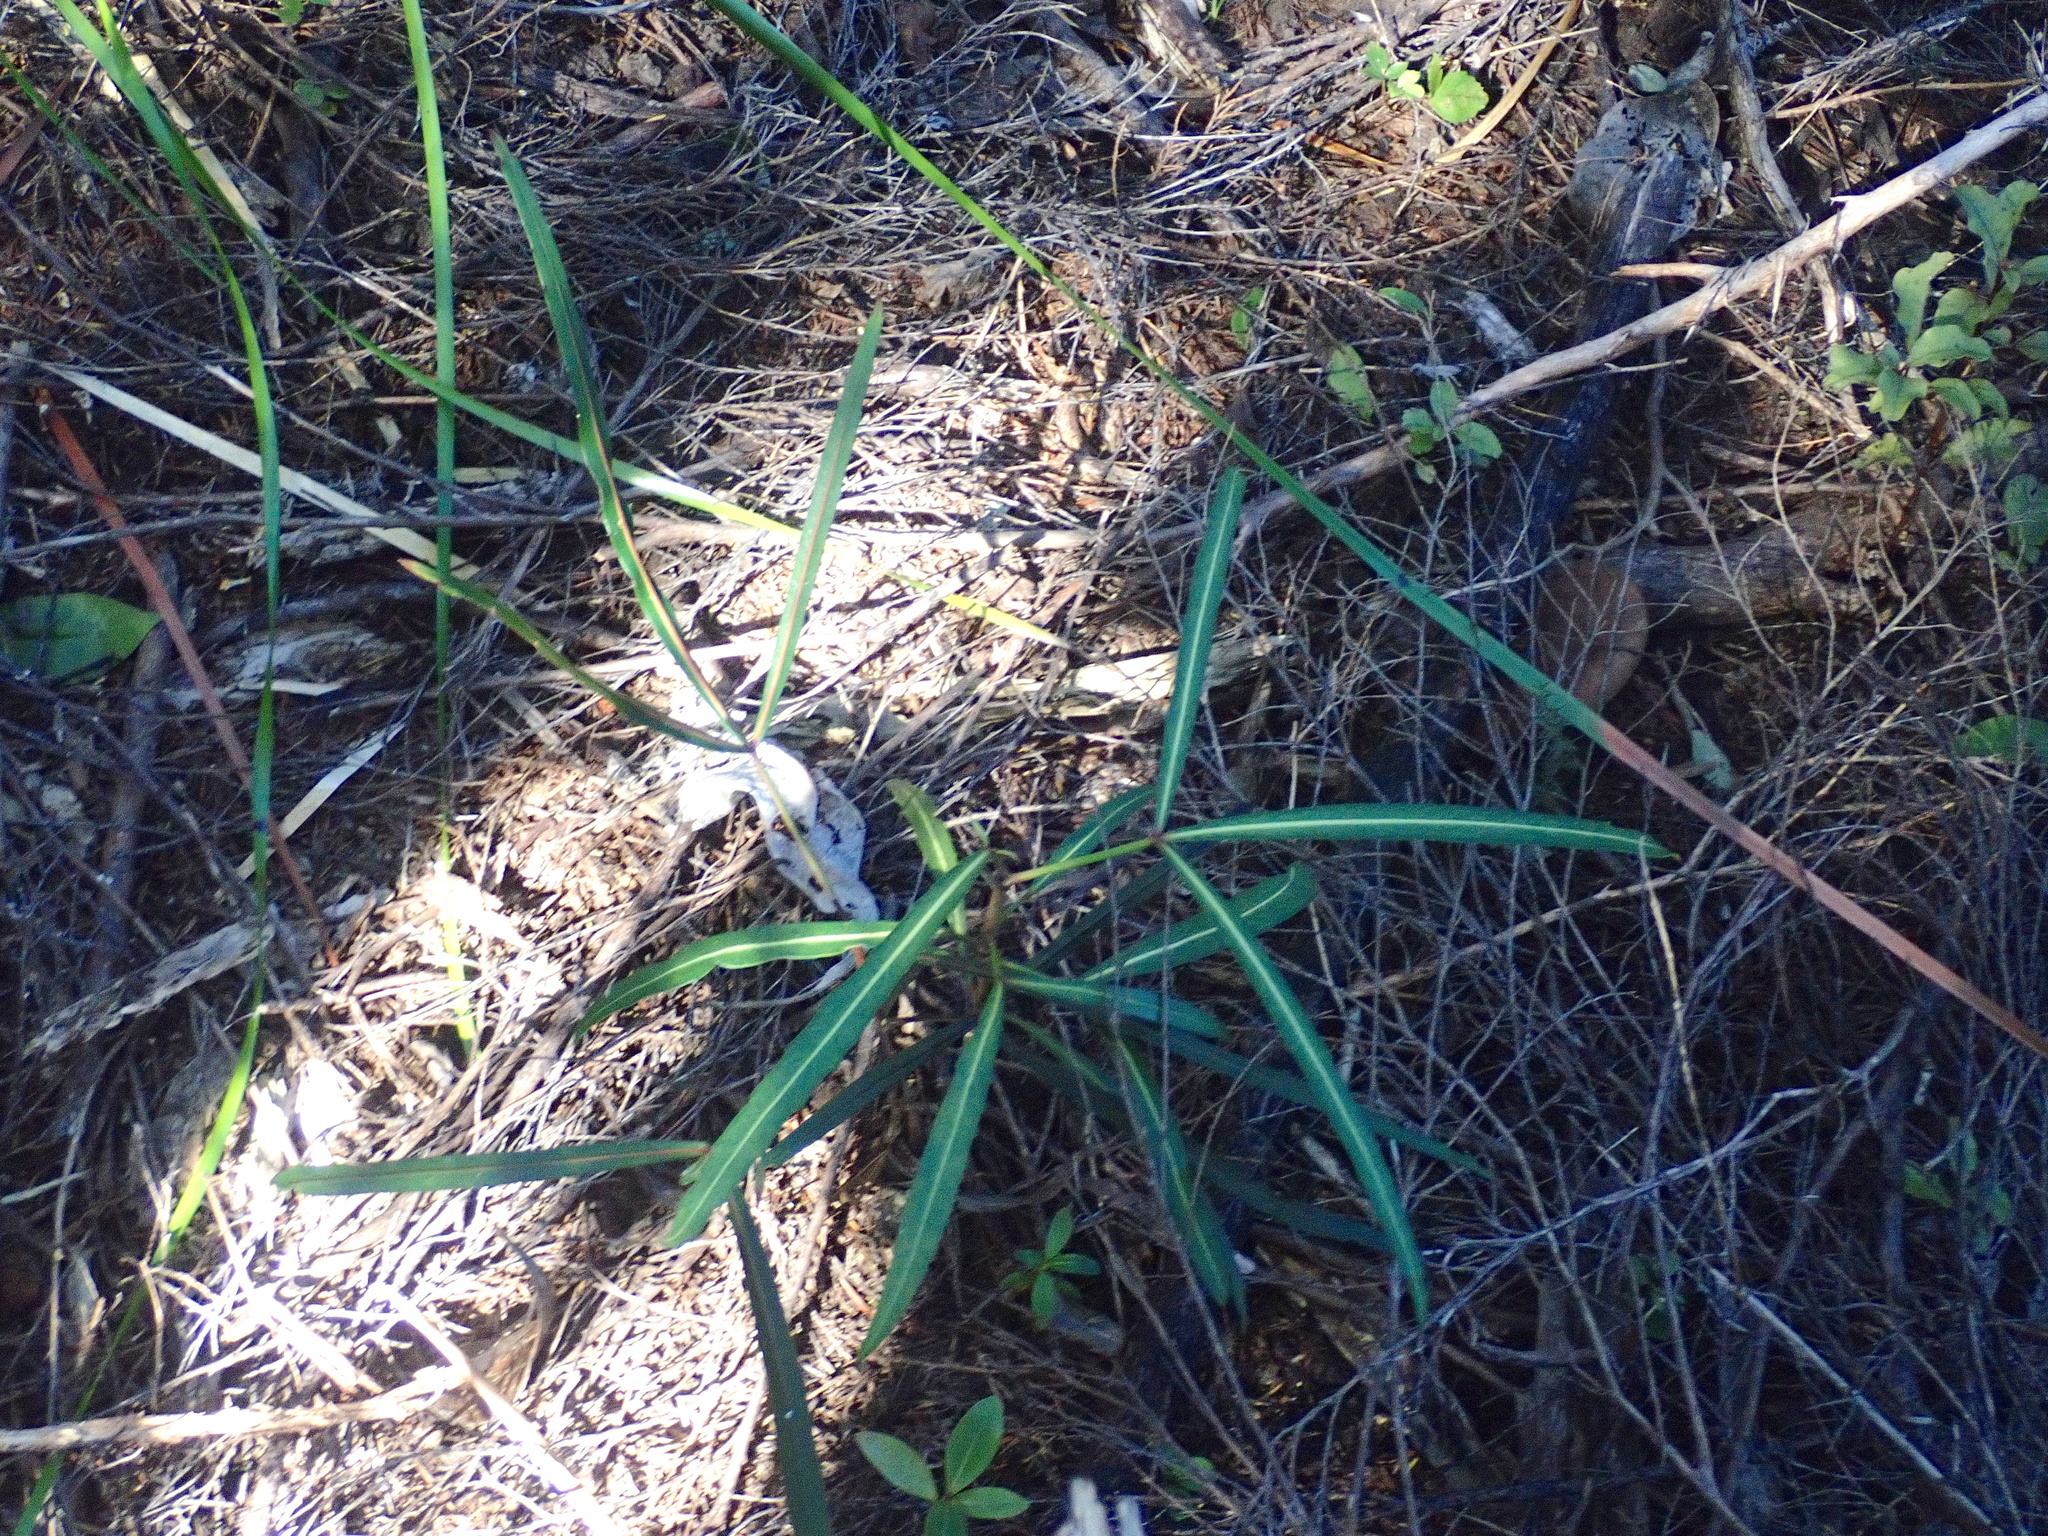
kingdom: Plantae
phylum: Tracheophyta
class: Magnoliopsida
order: Apiales
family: Araliaceae
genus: Pseudopanax
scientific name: Pseudopanax
